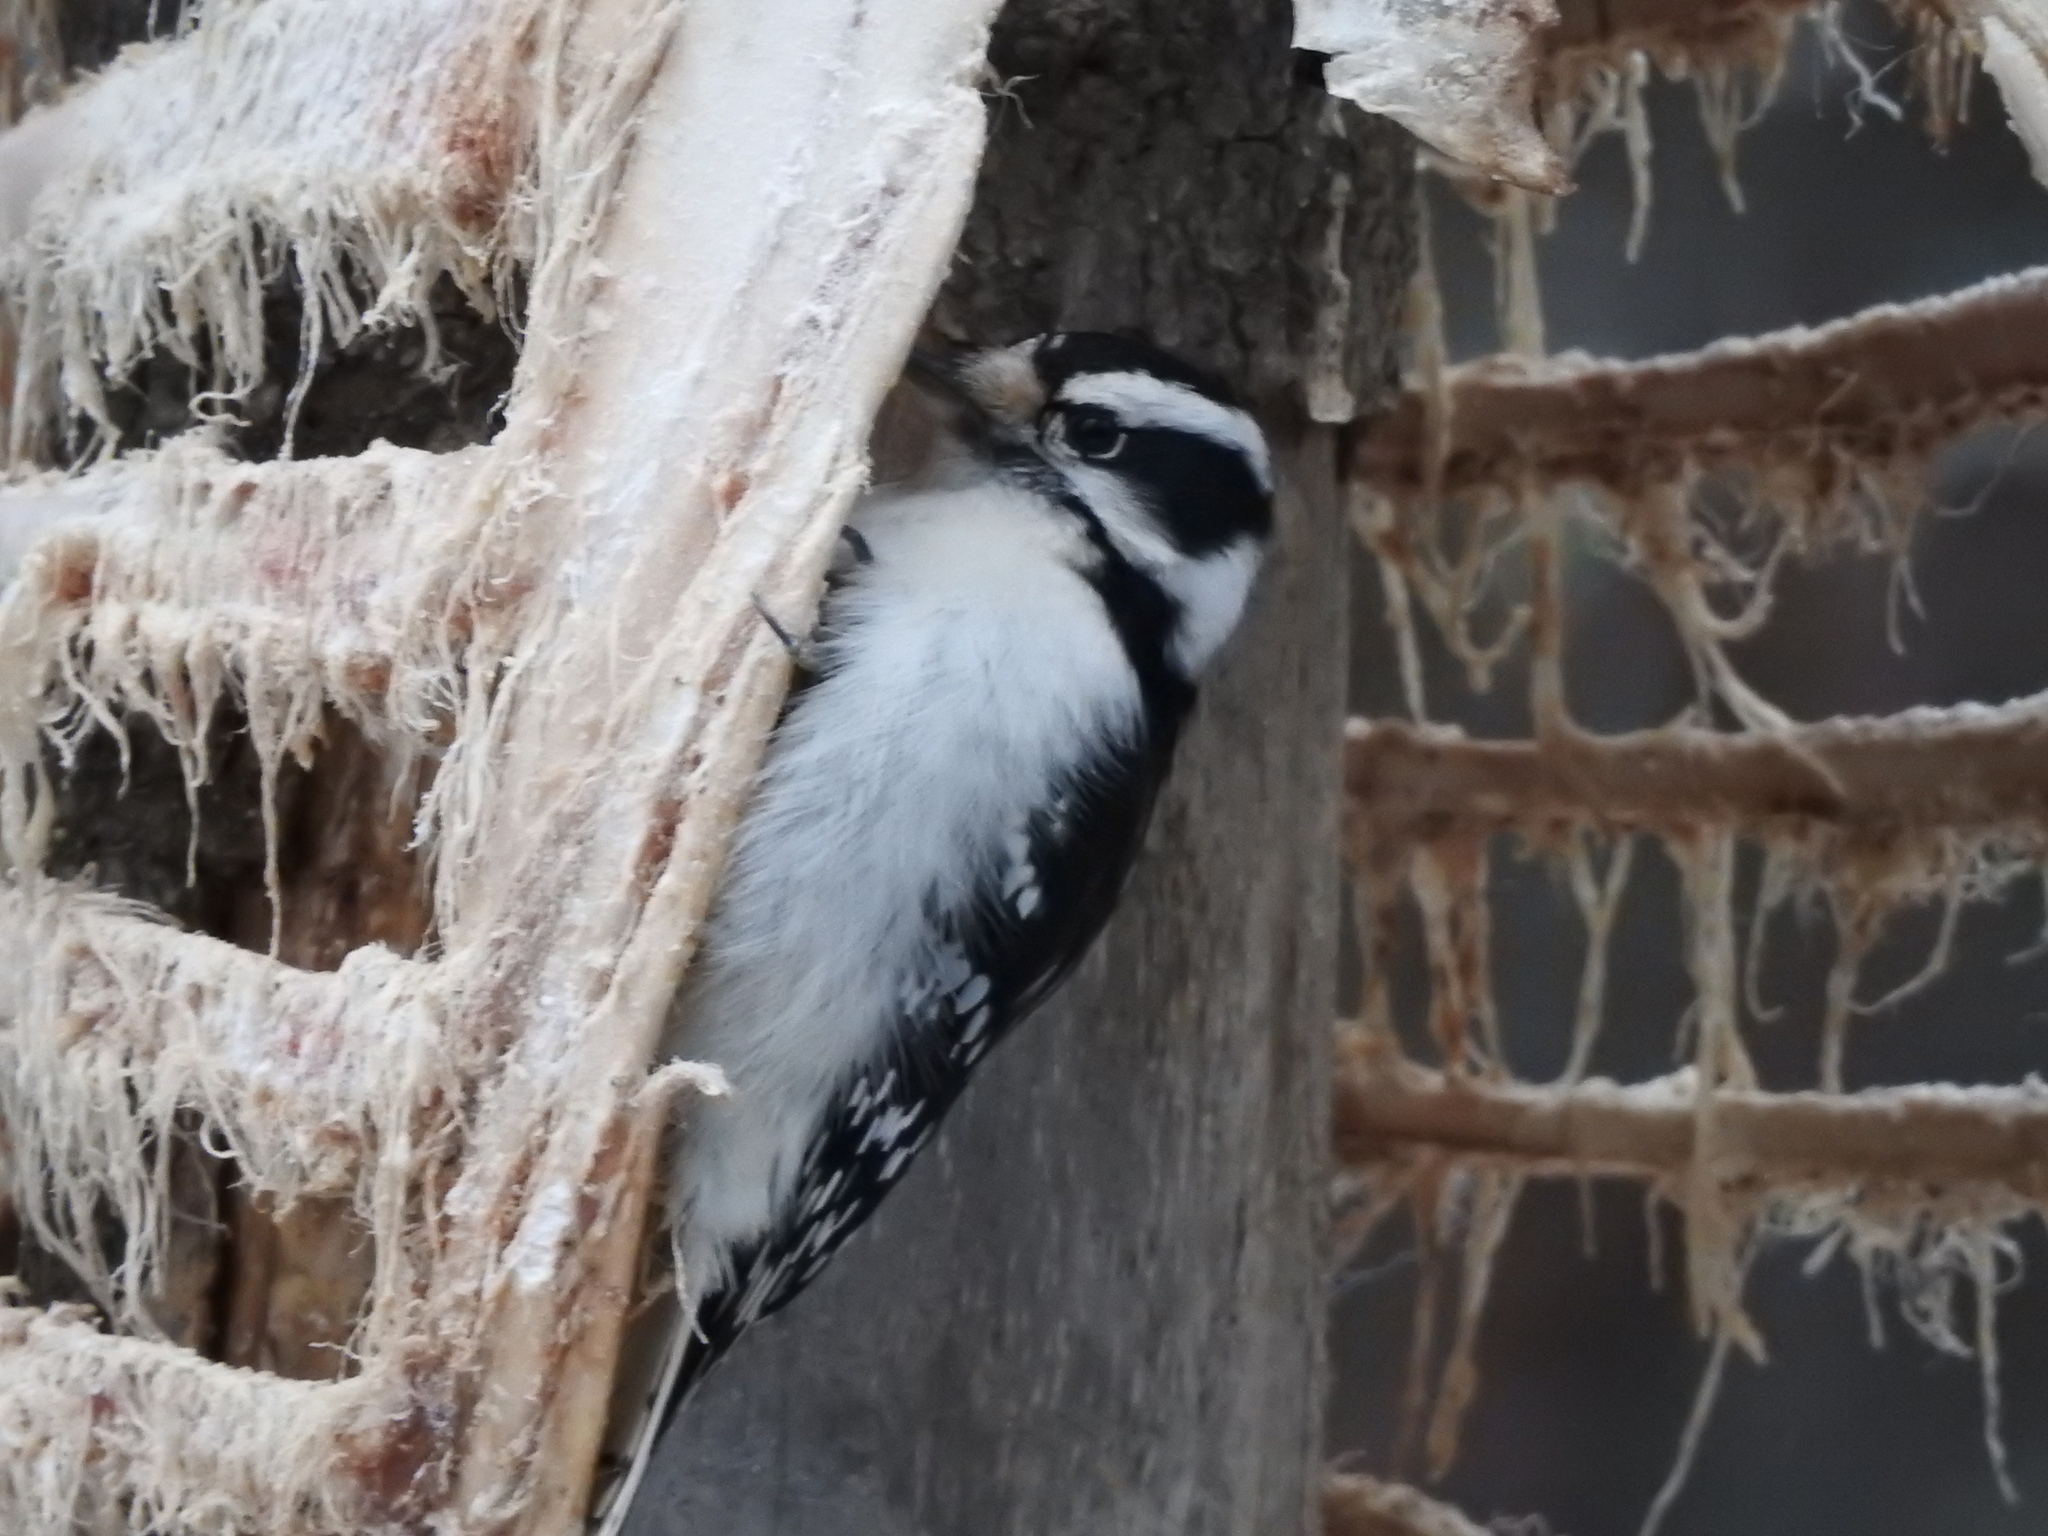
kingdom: Animalia
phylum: Chordata
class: Aves
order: Piciformes
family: Picidae
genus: Dryobates
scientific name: Dryobates pubescens
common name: Downy woodpecker
